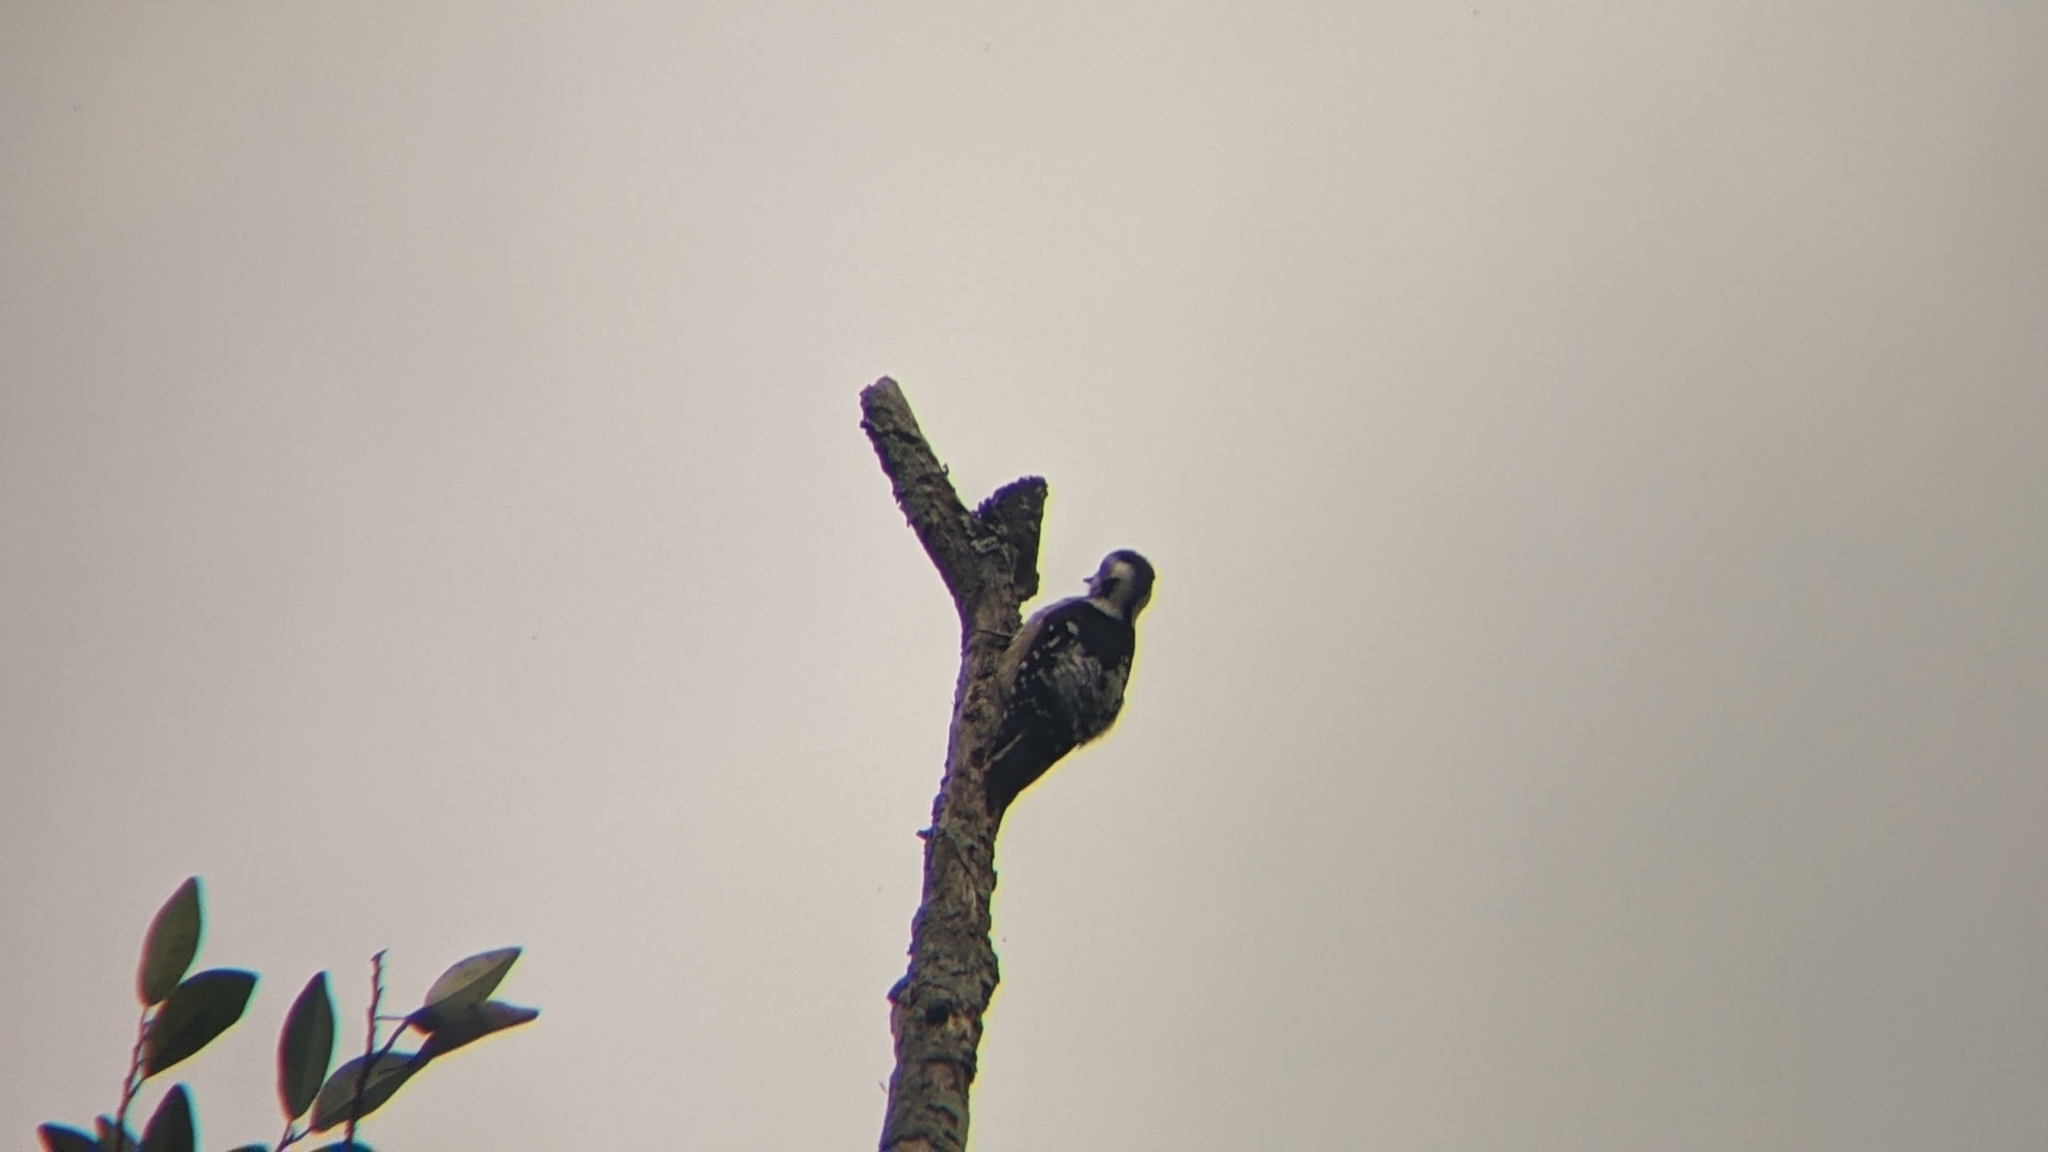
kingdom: Animalia
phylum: Chordata
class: Aves
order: Piciformes
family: Picidae
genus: Yungipicus
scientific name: Yungipicus canicapillus
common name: Grey-capped pygmy woodpecker
